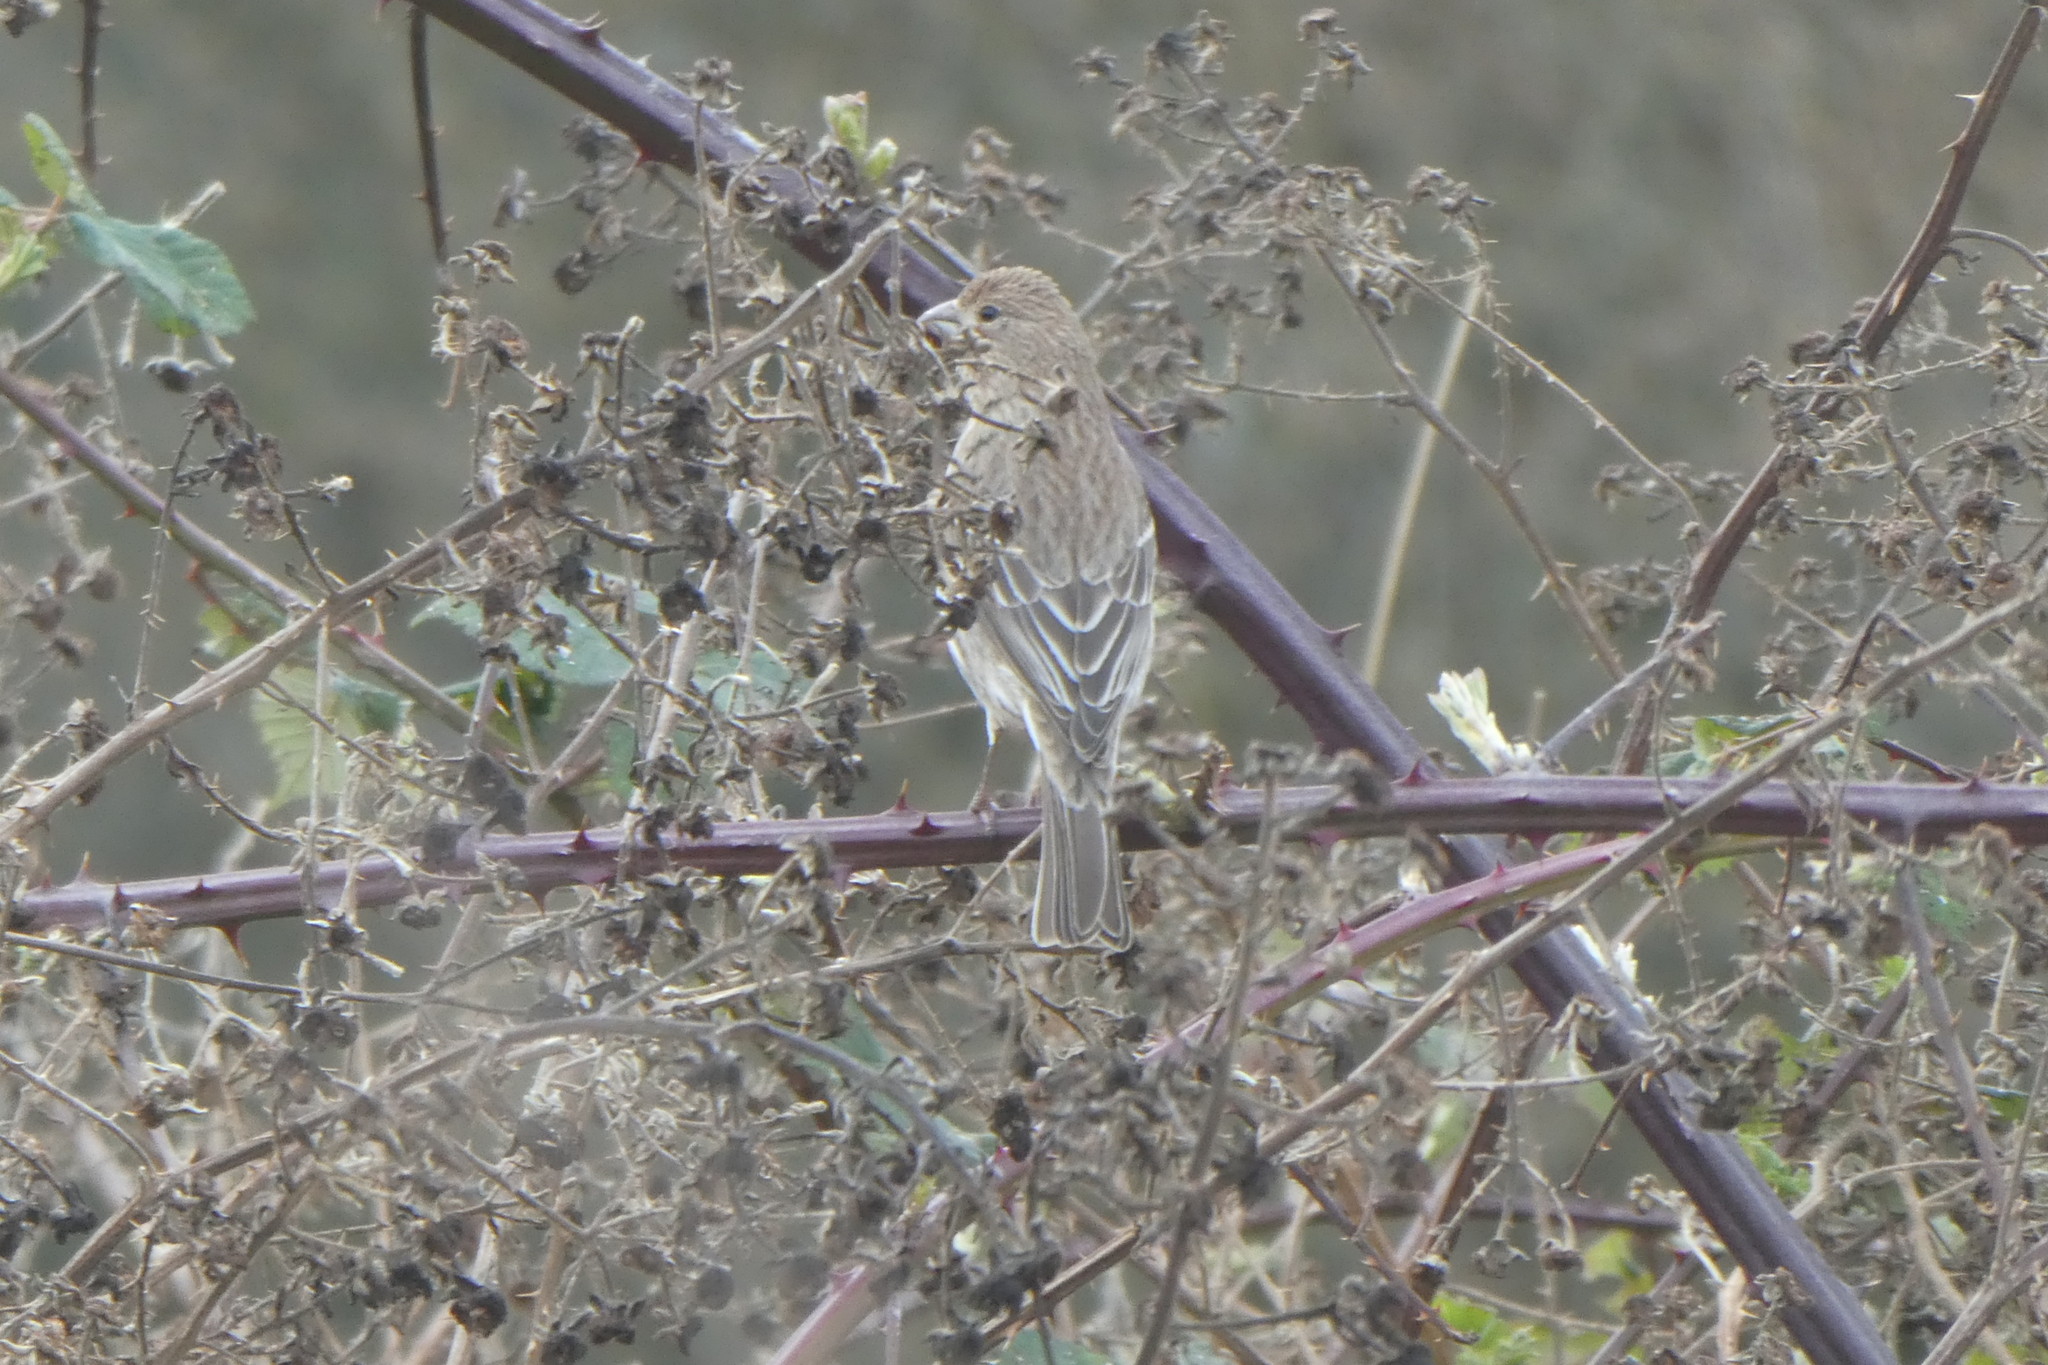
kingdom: Animalia
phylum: Chordata
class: Aves
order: Passeriformes
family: Fringillidae
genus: Haemorhous
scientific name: Haemorhous mexicanus
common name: House finch
